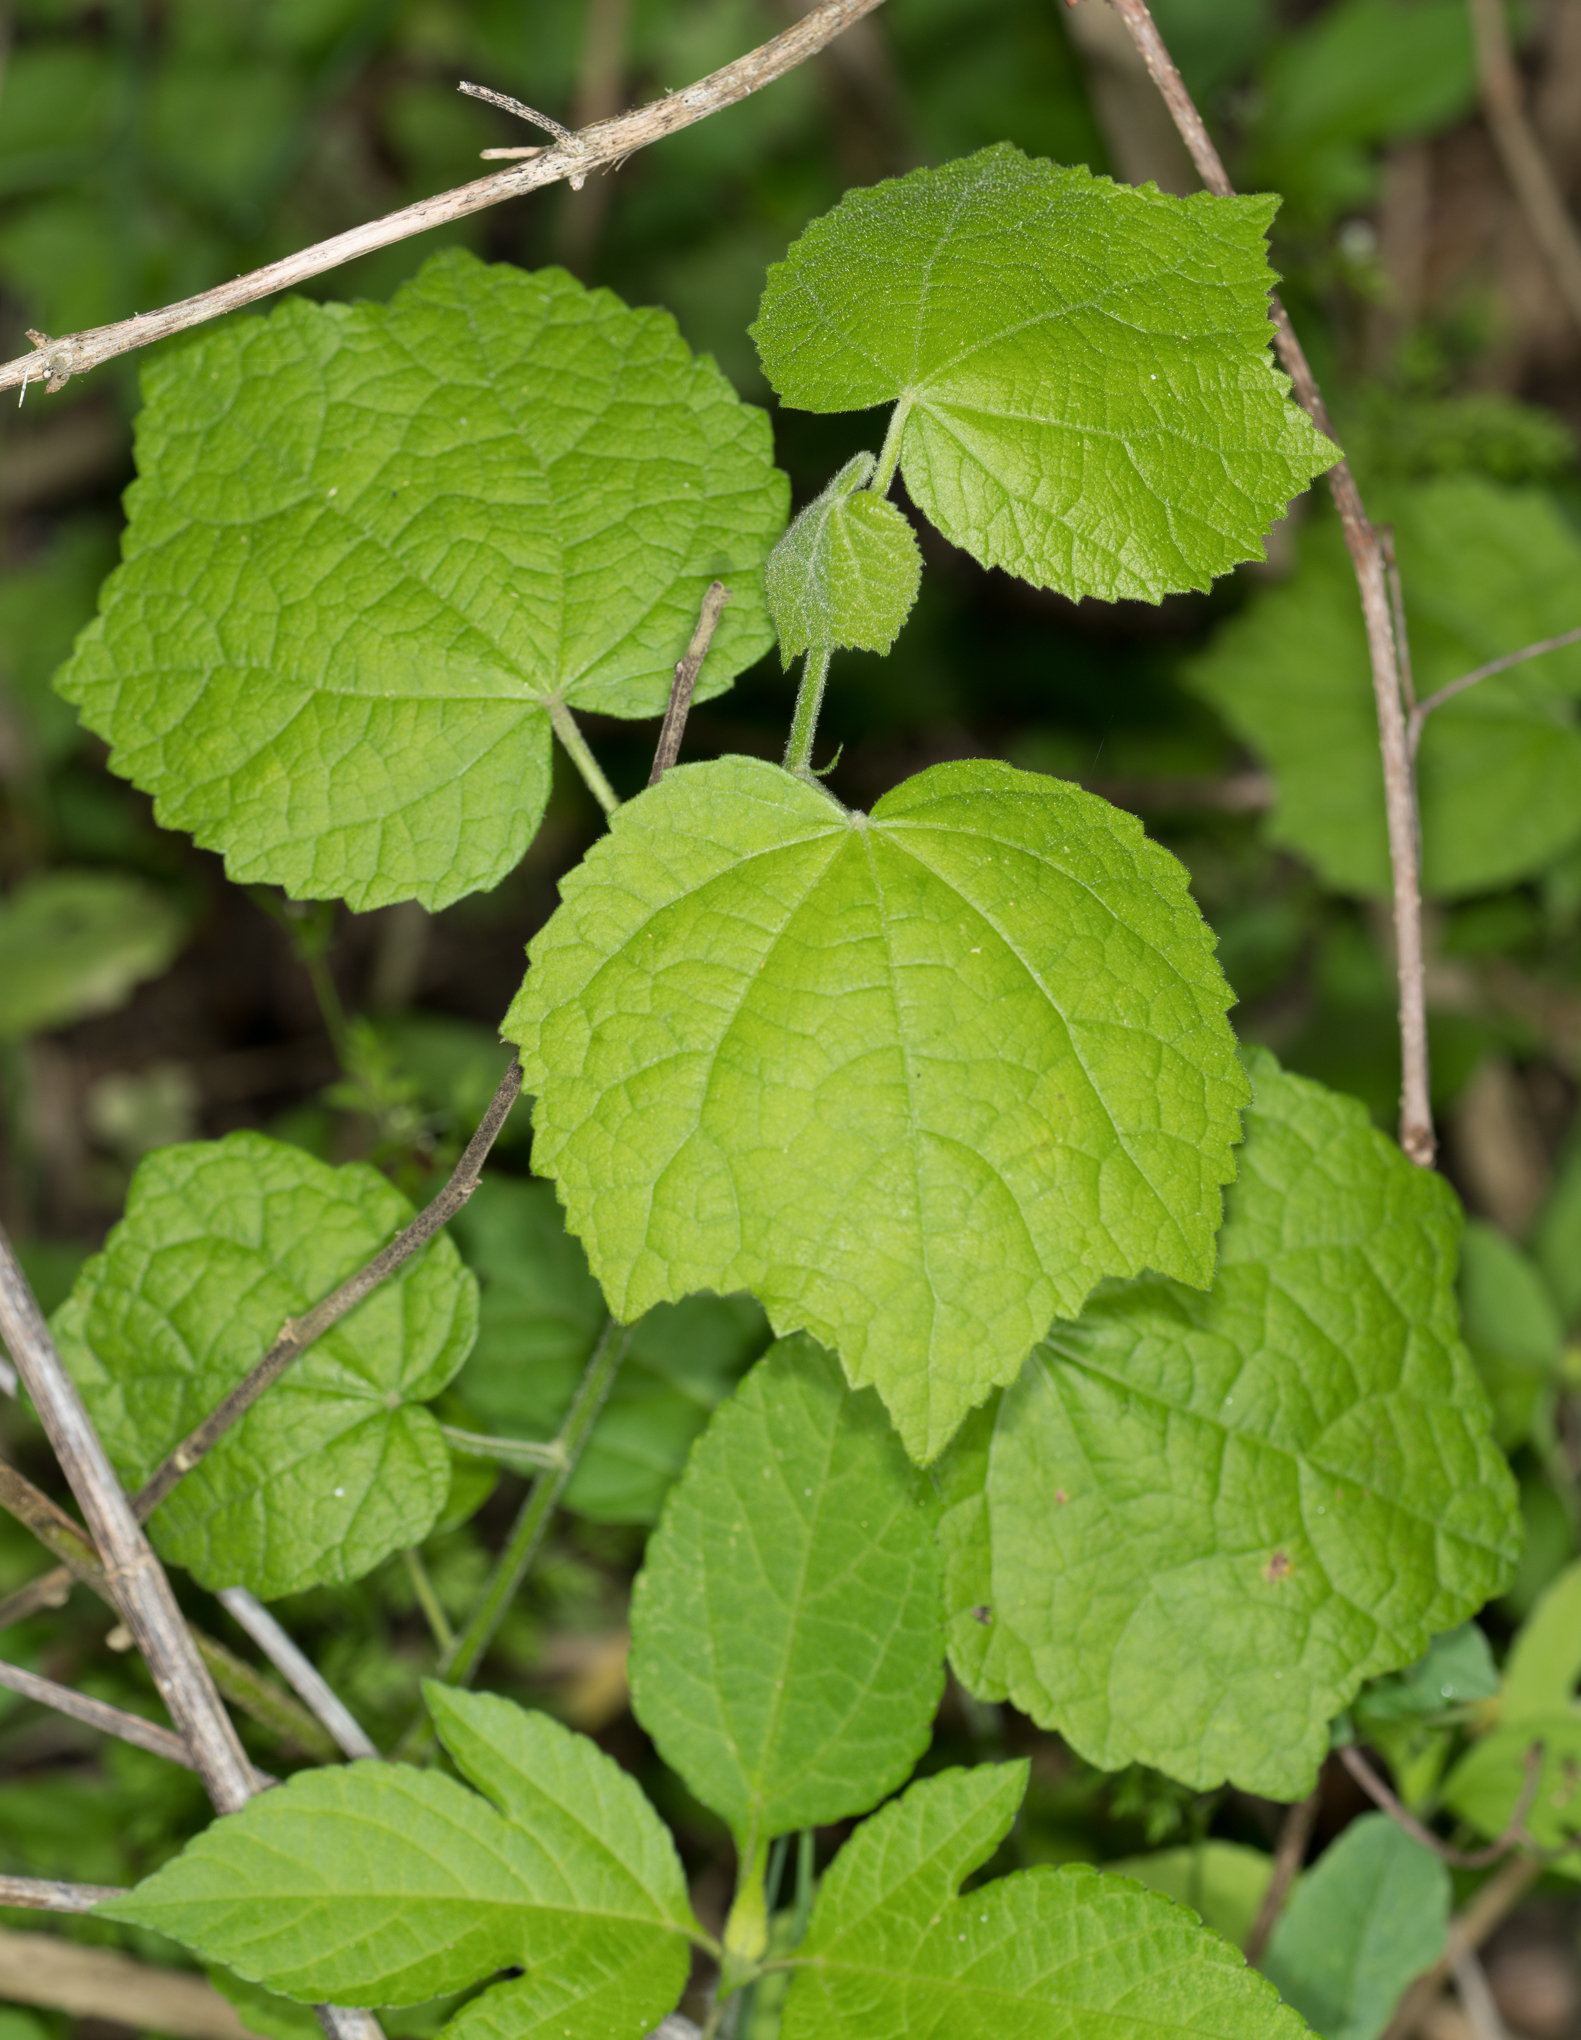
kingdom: Plantae
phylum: Tracheophyta
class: Magnoliopsida
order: Malvales
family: Malvaceae
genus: Malvaviscus
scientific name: Malvaviscus arboreus
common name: Wax mallow
